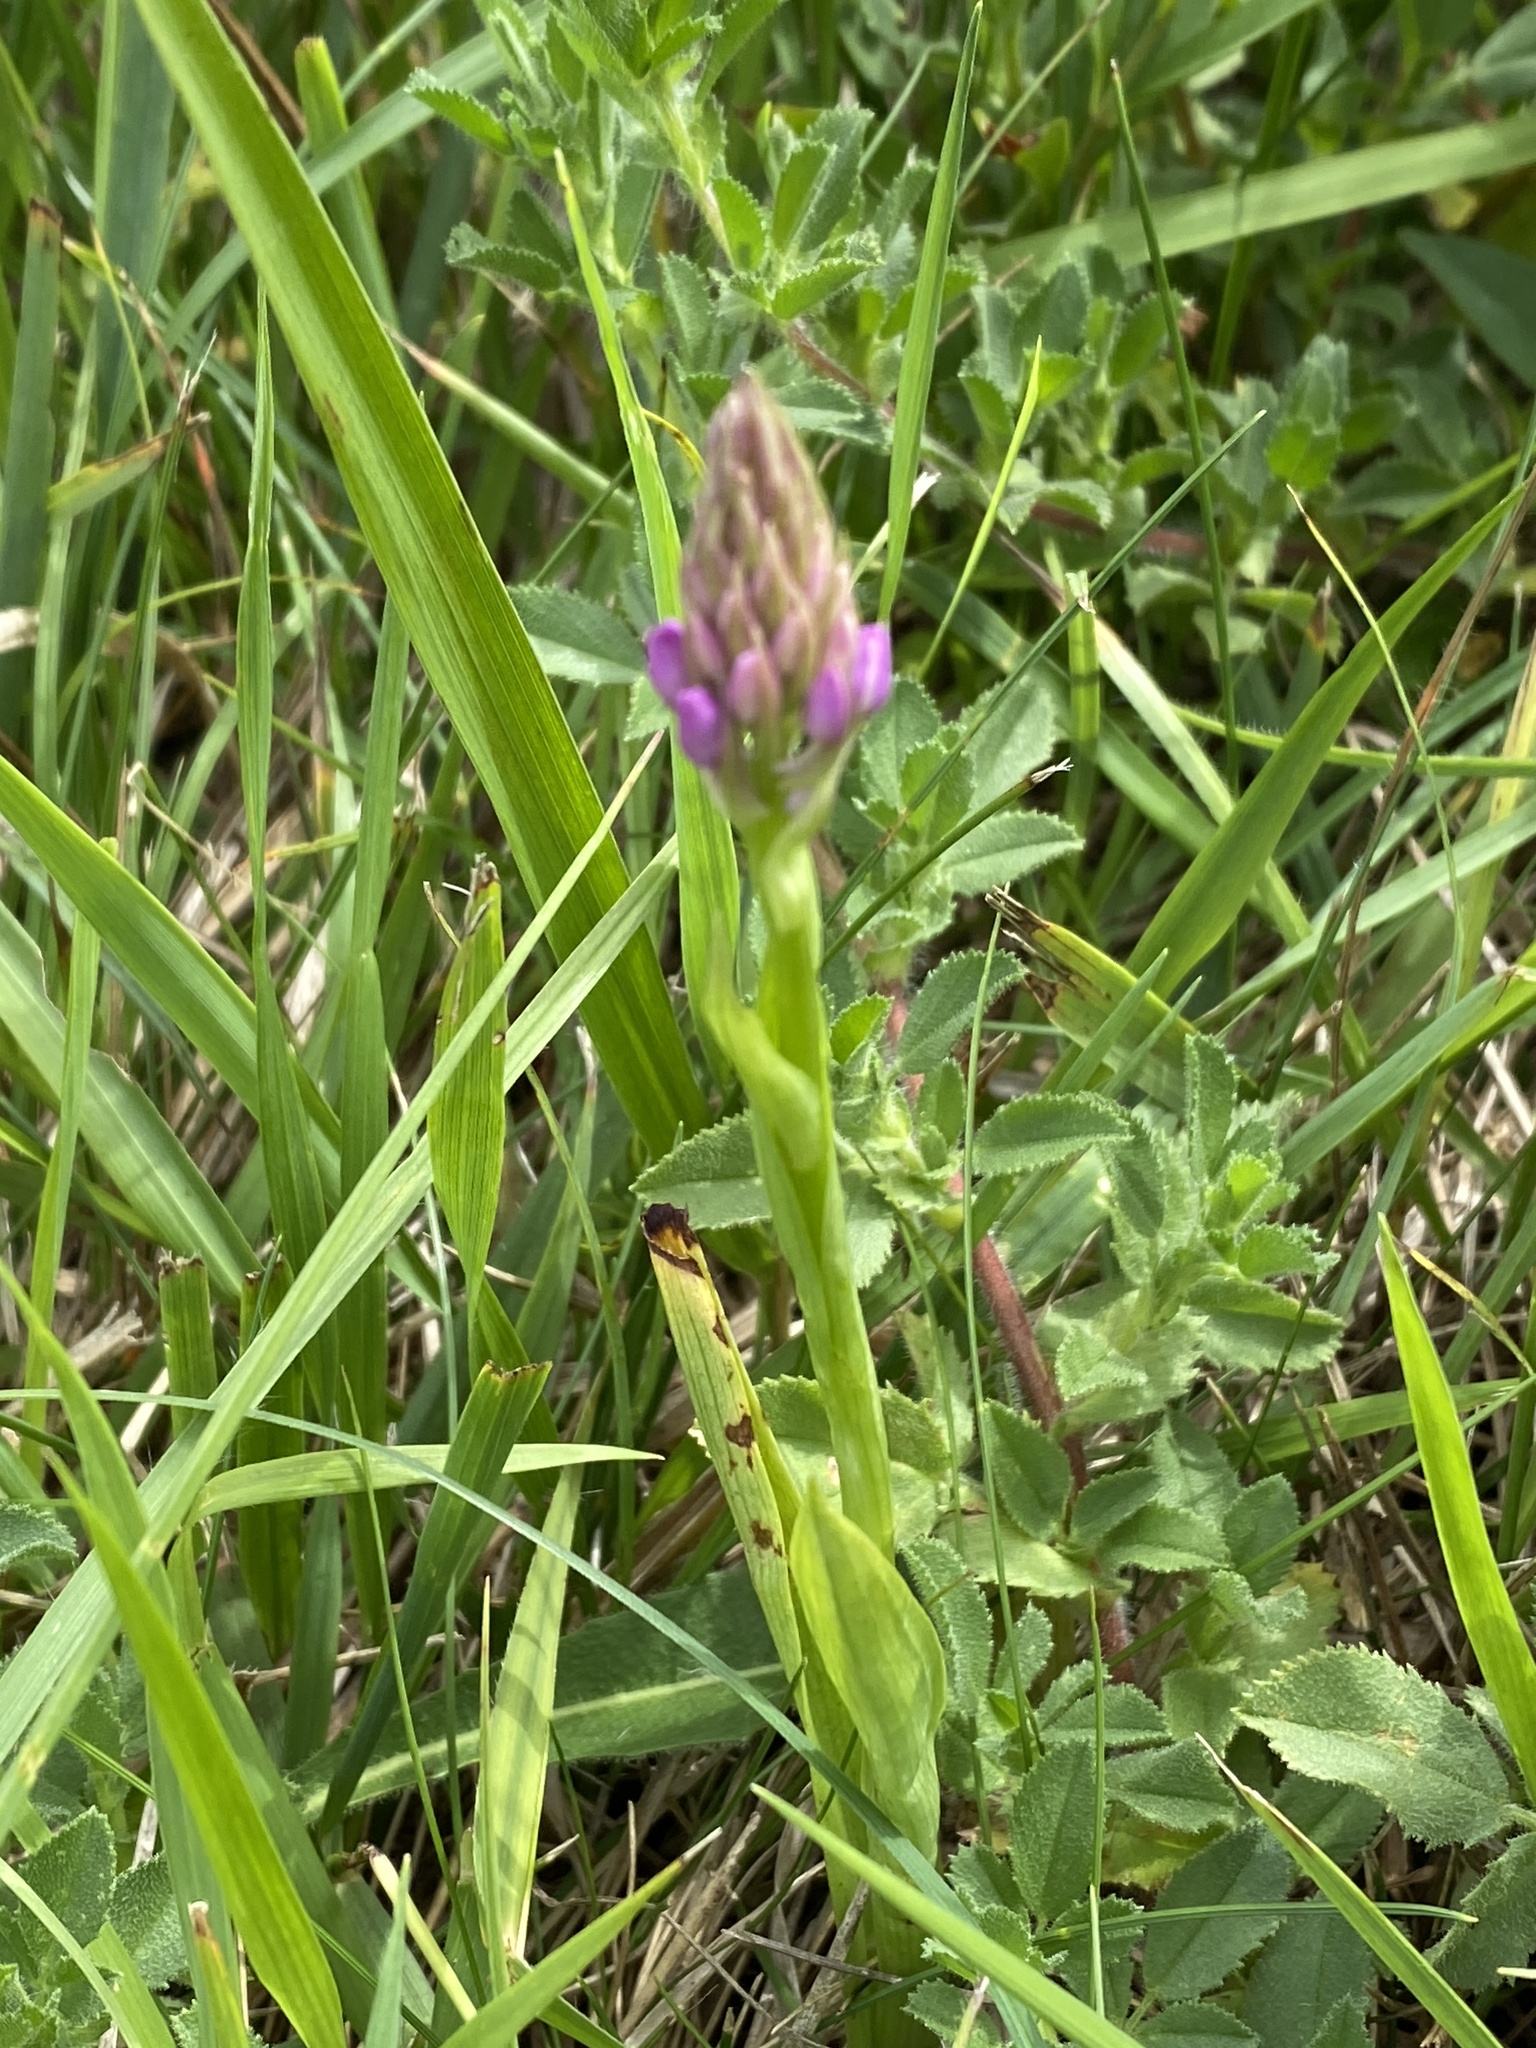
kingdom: Plantae
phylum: Tracheophyta
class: Liliopsida
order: Asparagales
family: Orchidaceae
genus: Anacamptis
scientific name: Anacamptis pyramidalis
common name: Pyramidal orchid
